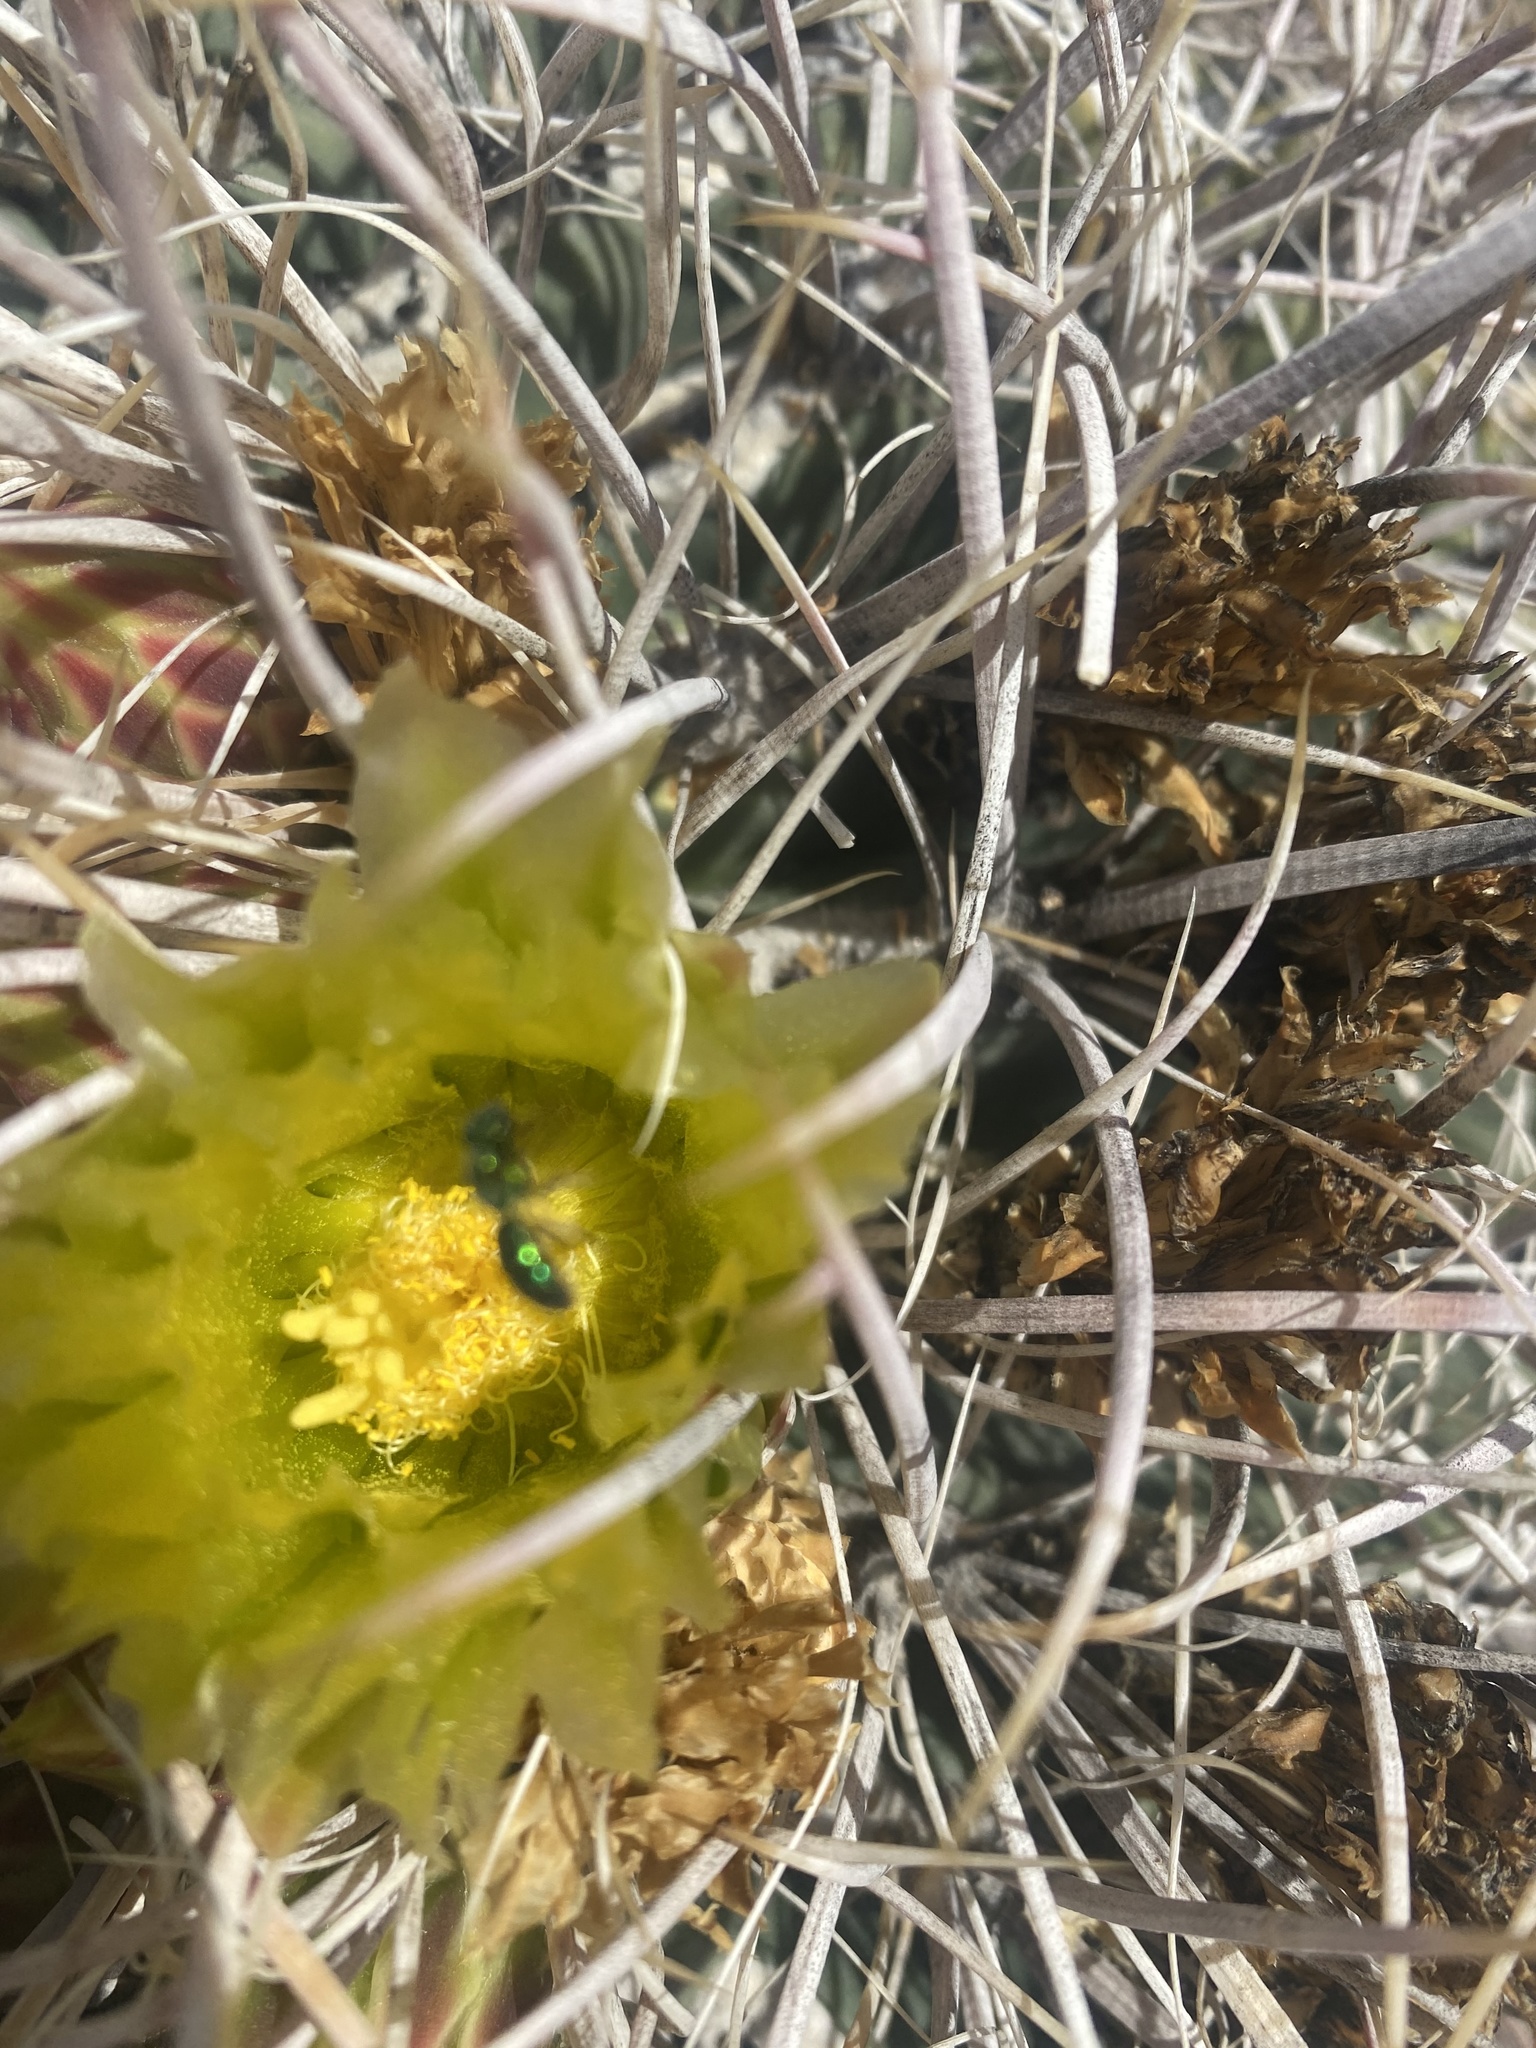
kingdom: Plantae
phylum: Tracheophyta
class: Magnoliopsida
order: Caryophyllales
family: Cactaceae
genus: Ferocactus
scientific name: Ferocactus cylindraceus
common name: California barrel cactus
